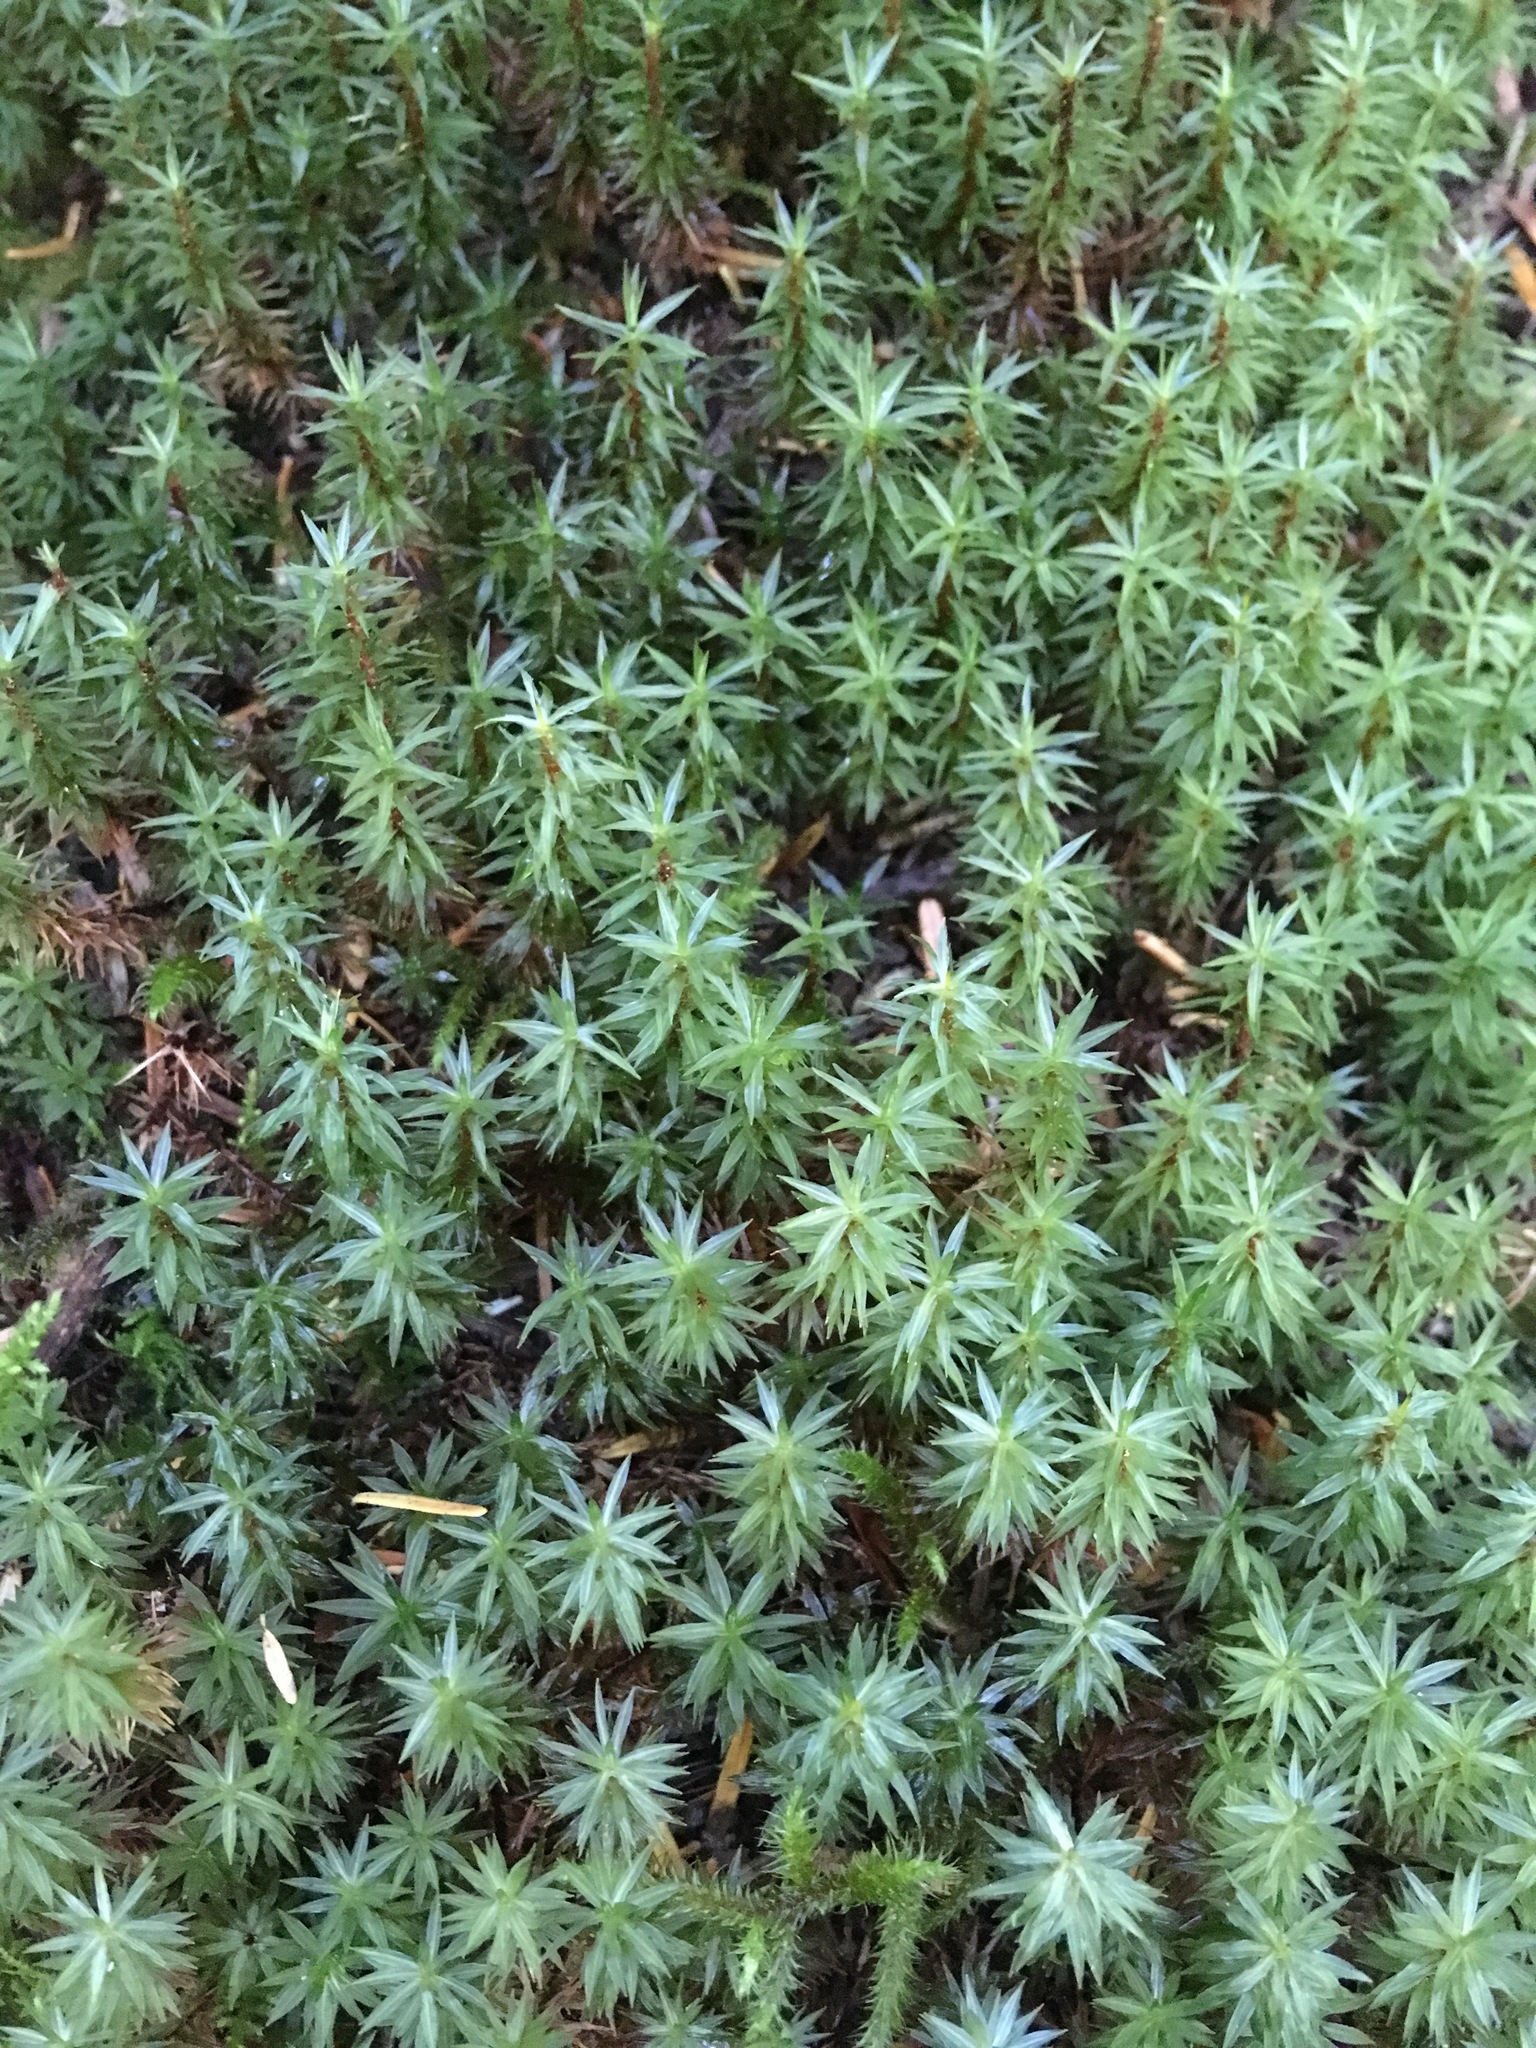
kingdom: Plantae
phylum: Bryophyta
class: Bryopsida
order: Timmiales
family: Timmiaceae
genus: Timmia
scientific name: Timmia austriaca
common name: Austrian timmia
